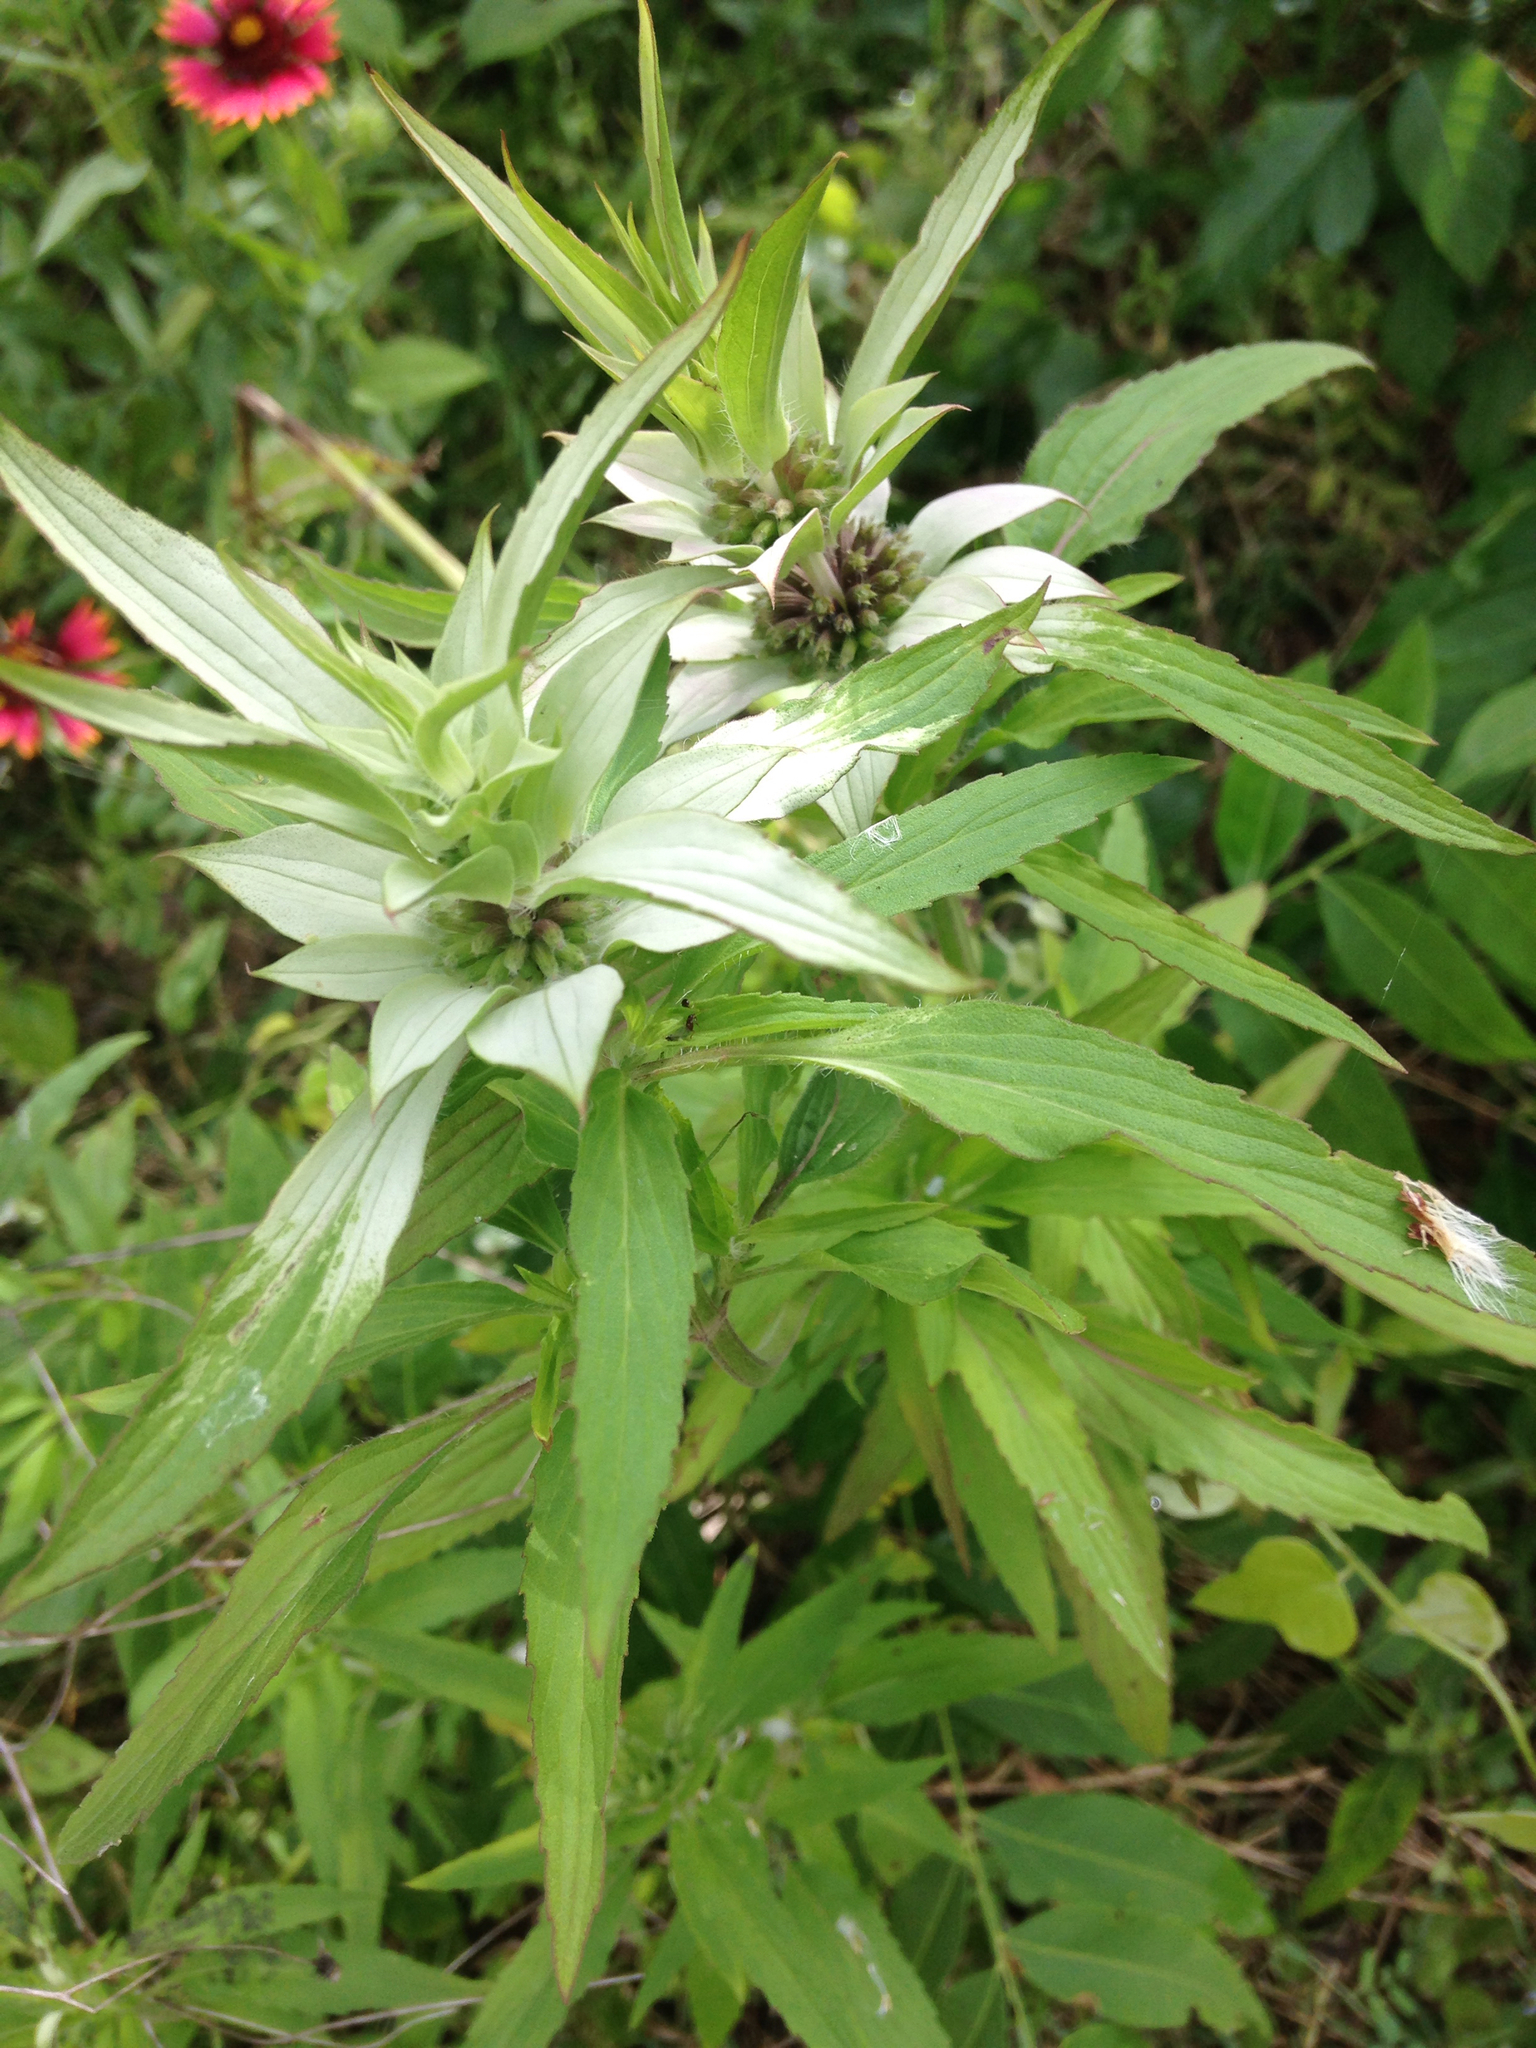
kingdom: Plantae
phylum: Tracheophyta
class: Magnoliopsida
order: Lamiales
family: Lamiaceae
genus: Monarda
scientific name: Monarda punctata
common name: Dotted monarda
